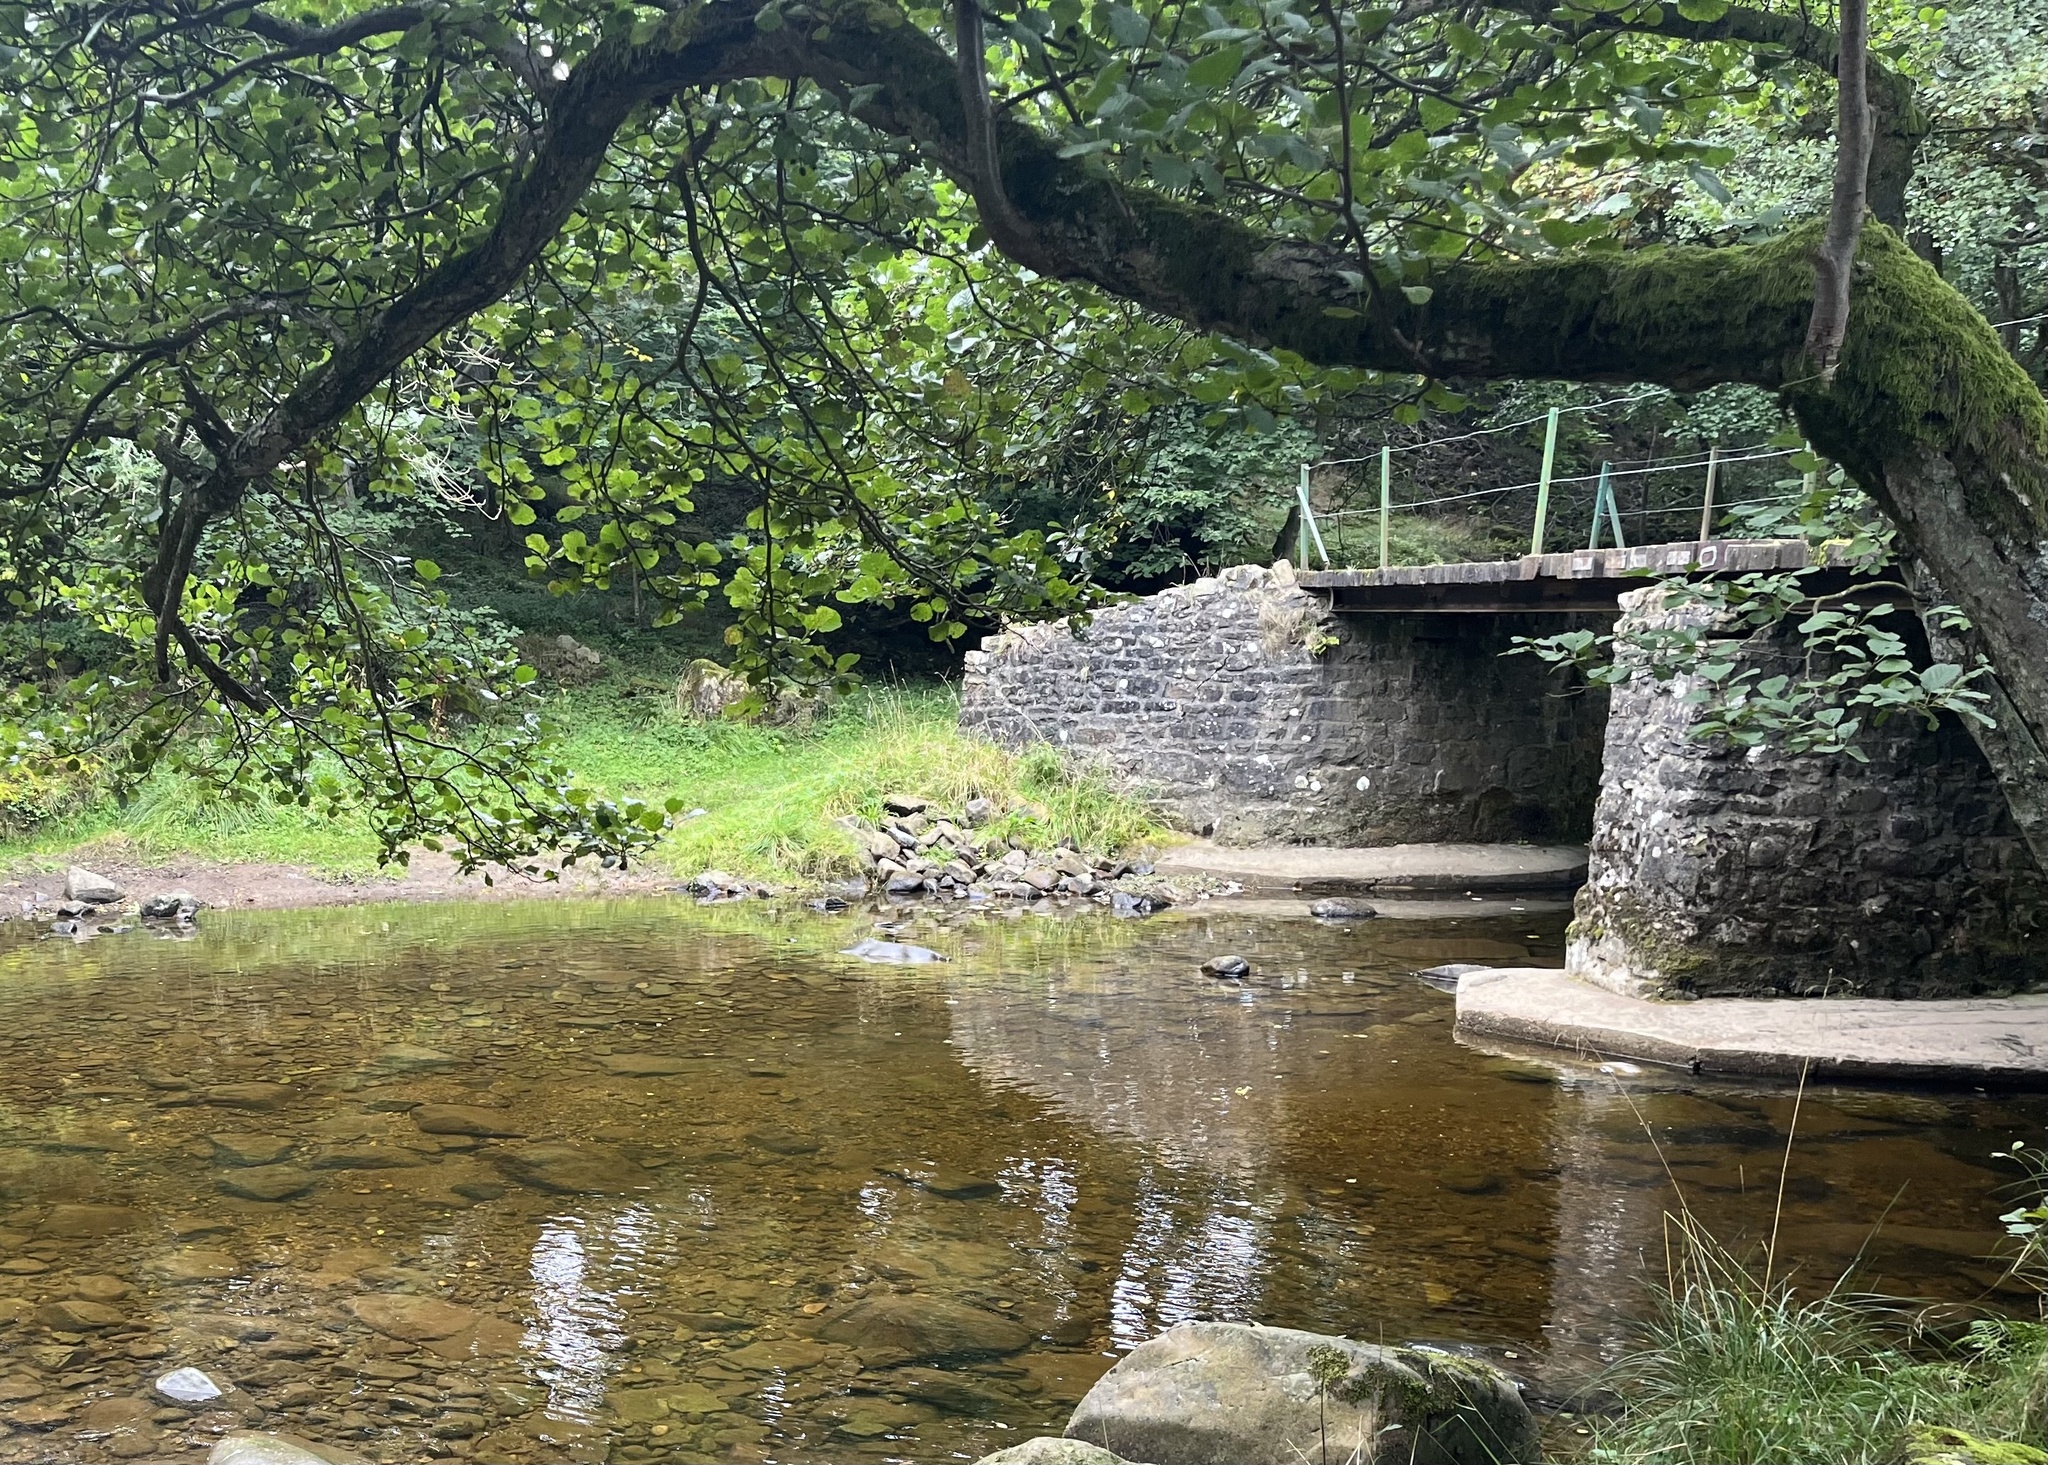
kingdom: Animalia
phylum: Chordata
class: Aves
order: Coraciiformes
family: Alcedinidae
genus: Alcedo
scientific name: Alcedo atthis
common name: Common kingfisher
